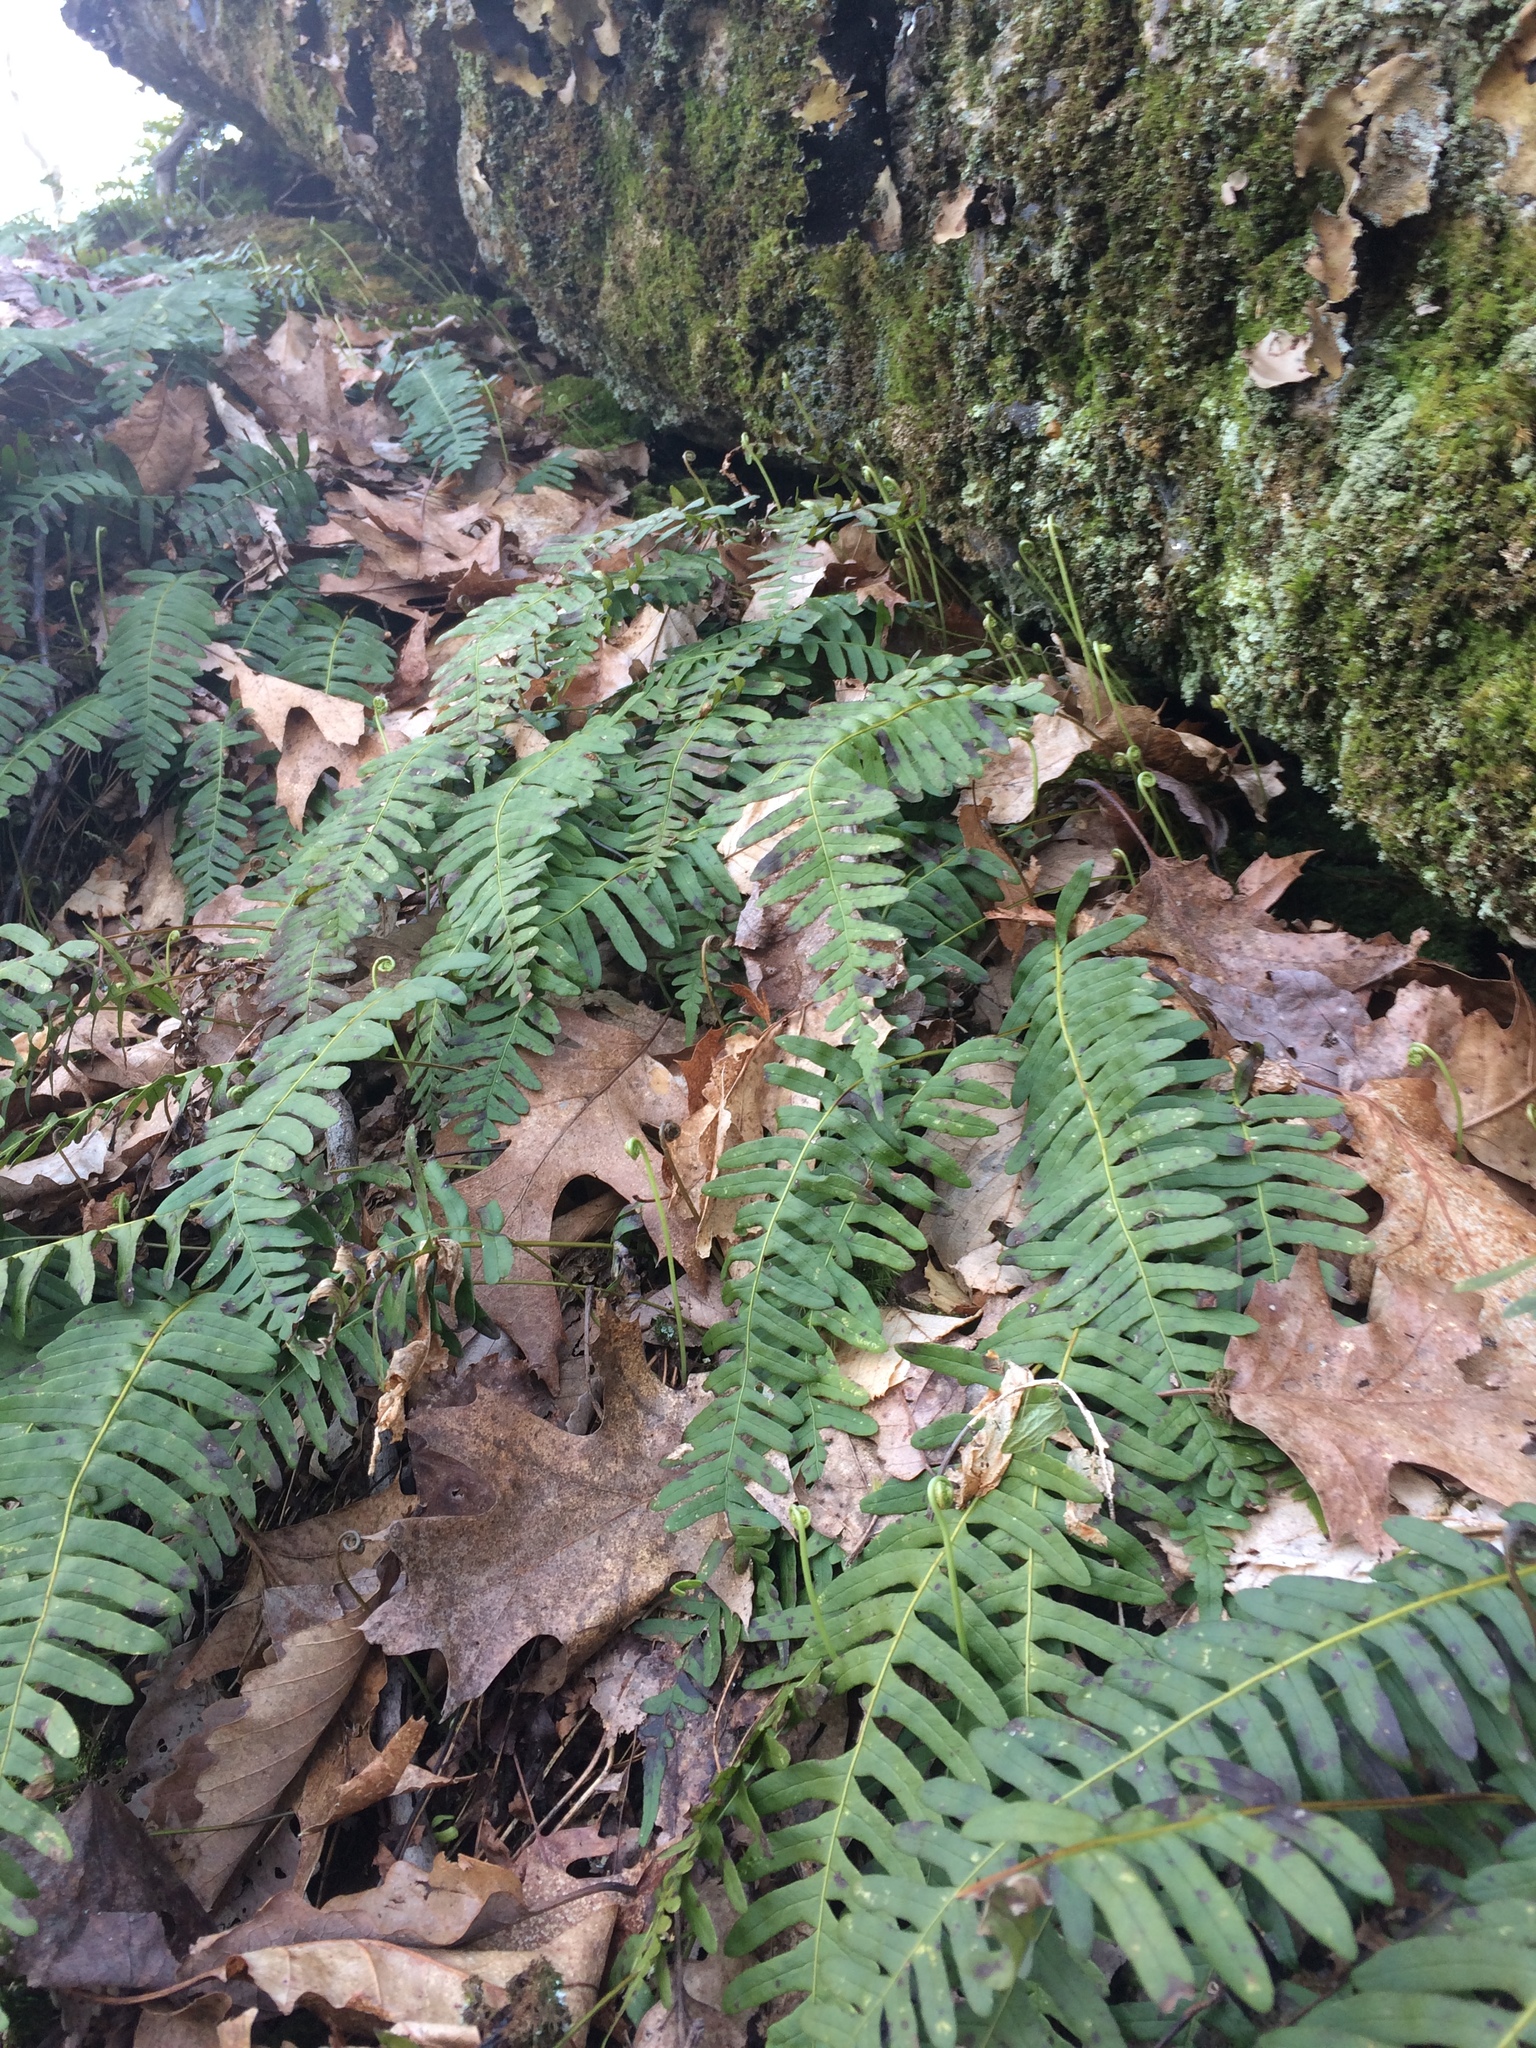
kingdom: Plantae
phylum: Tracheophyta
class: Polypodiopsida
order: Polypodiales
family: Polypodiaceae
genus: Polypodium
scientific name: Polypodium virginianum
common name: American wall fern
